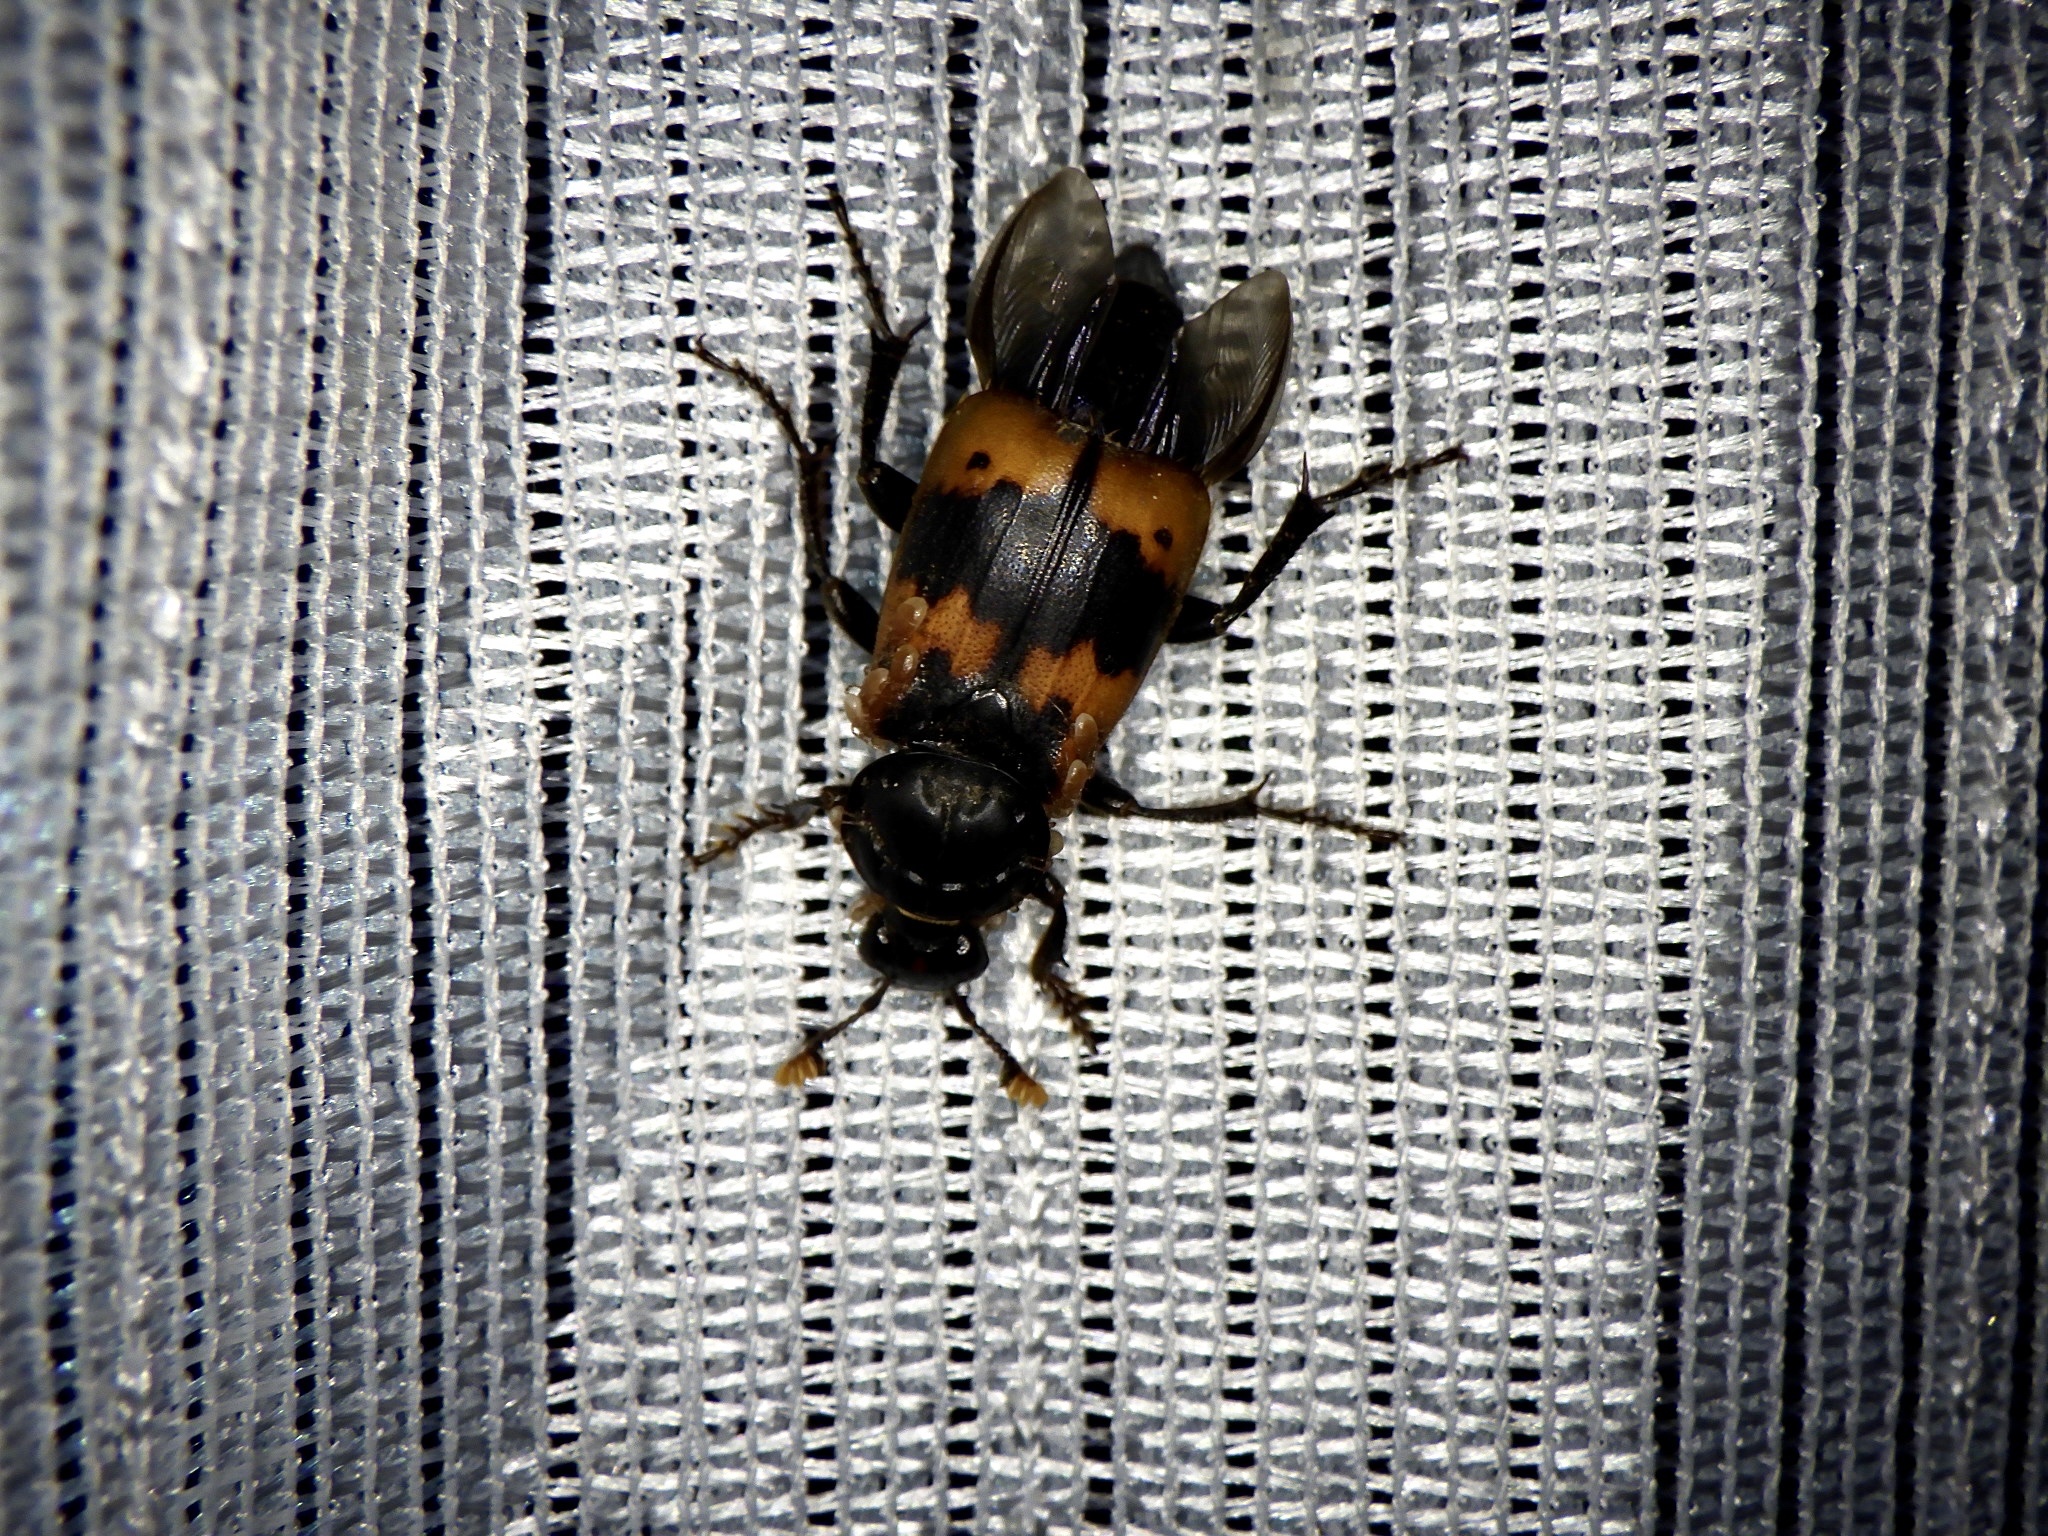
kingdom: Animalia
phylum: Arthropoda
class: Insecta
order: Coleoptera
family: Staphylinidae
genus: Nicrophorus
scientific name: Nicrophorus quadripunctatus
